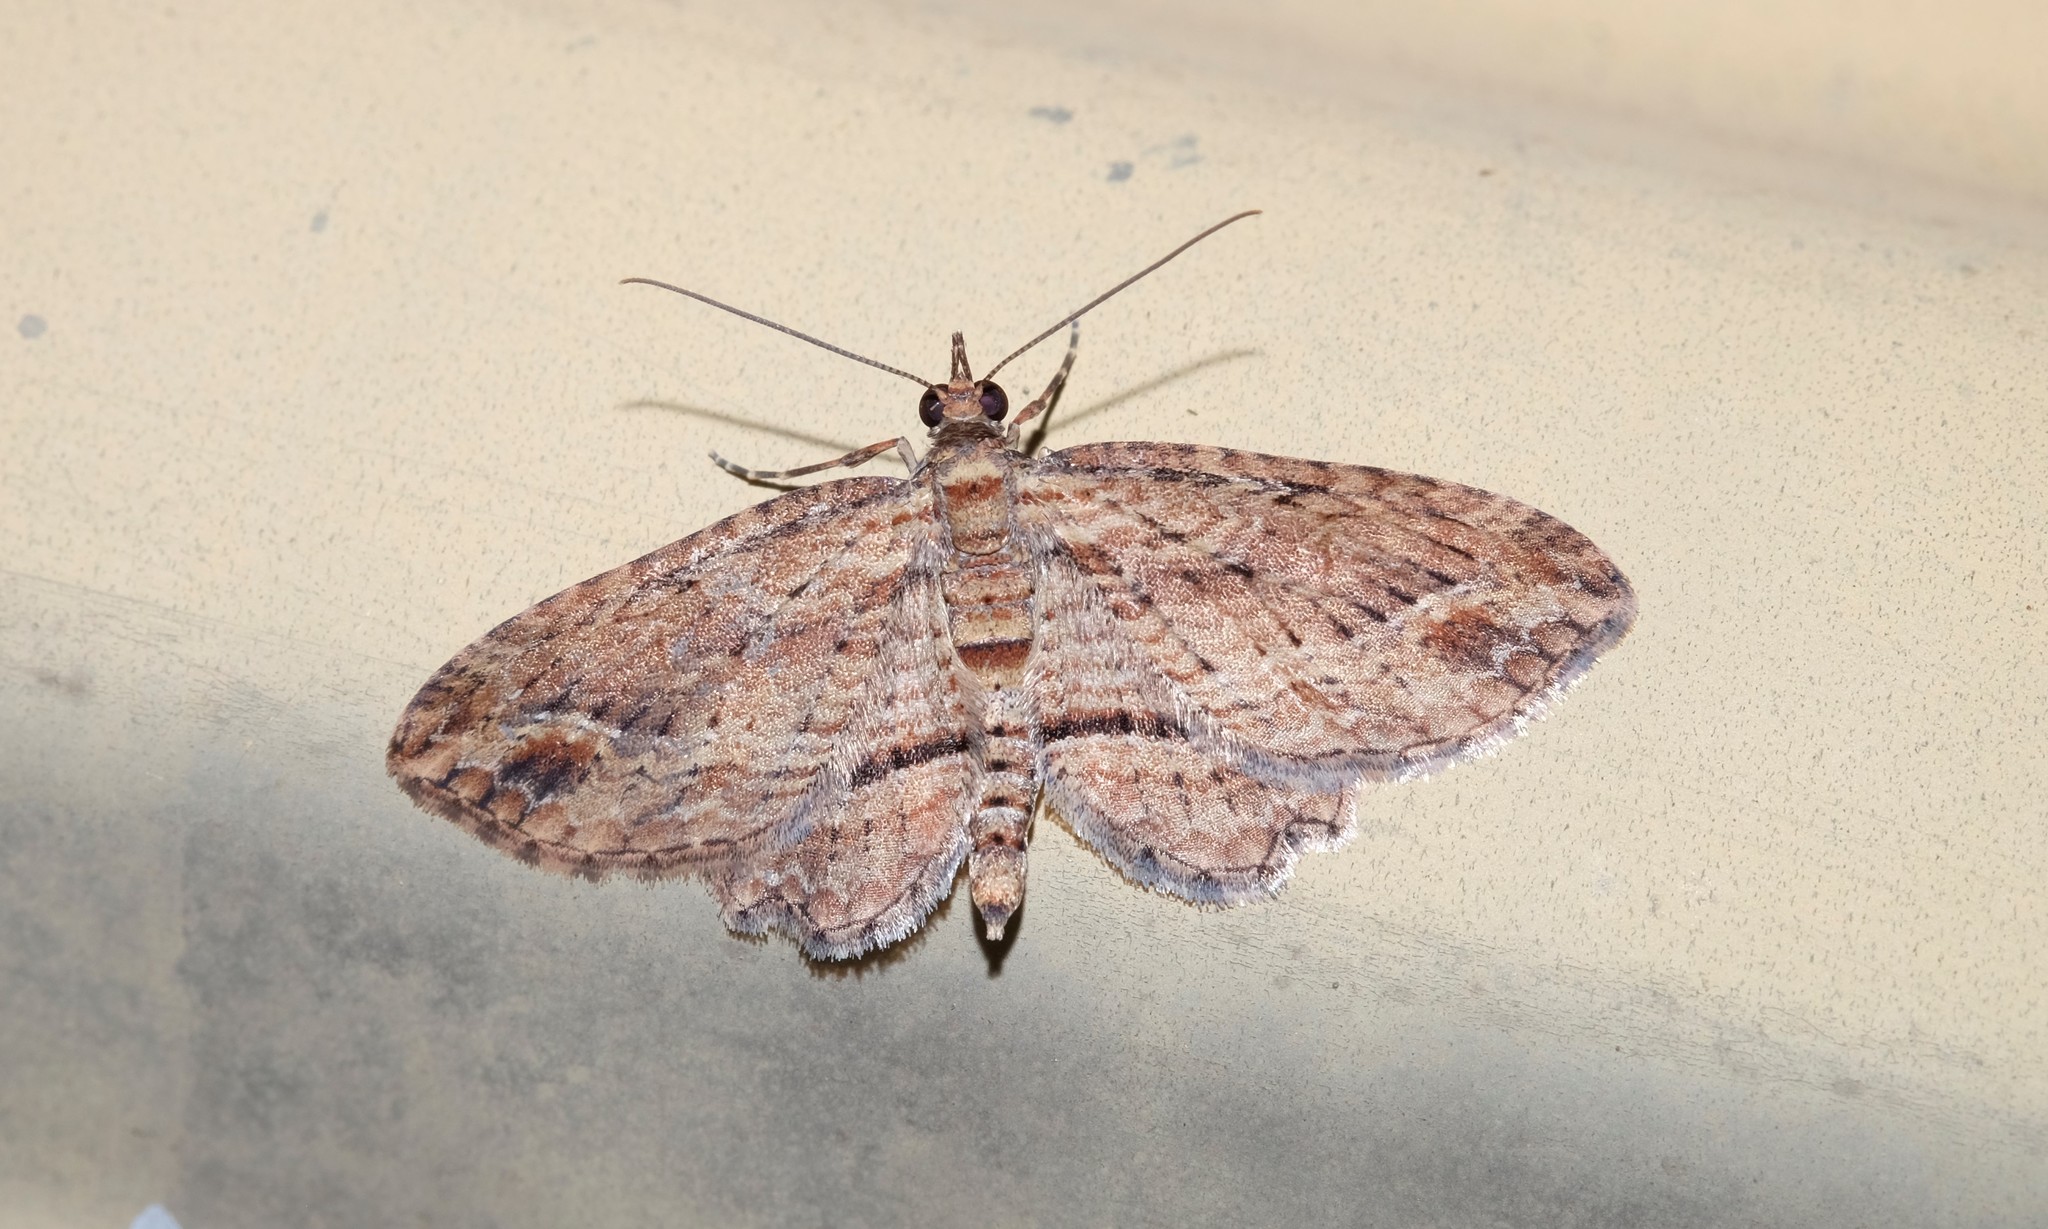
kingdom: Animalia
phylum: Arthropoda
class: Insecta
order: Lepidoptera
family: Geometridae
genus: Chloroclystis
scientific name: Chloroclystis filata
